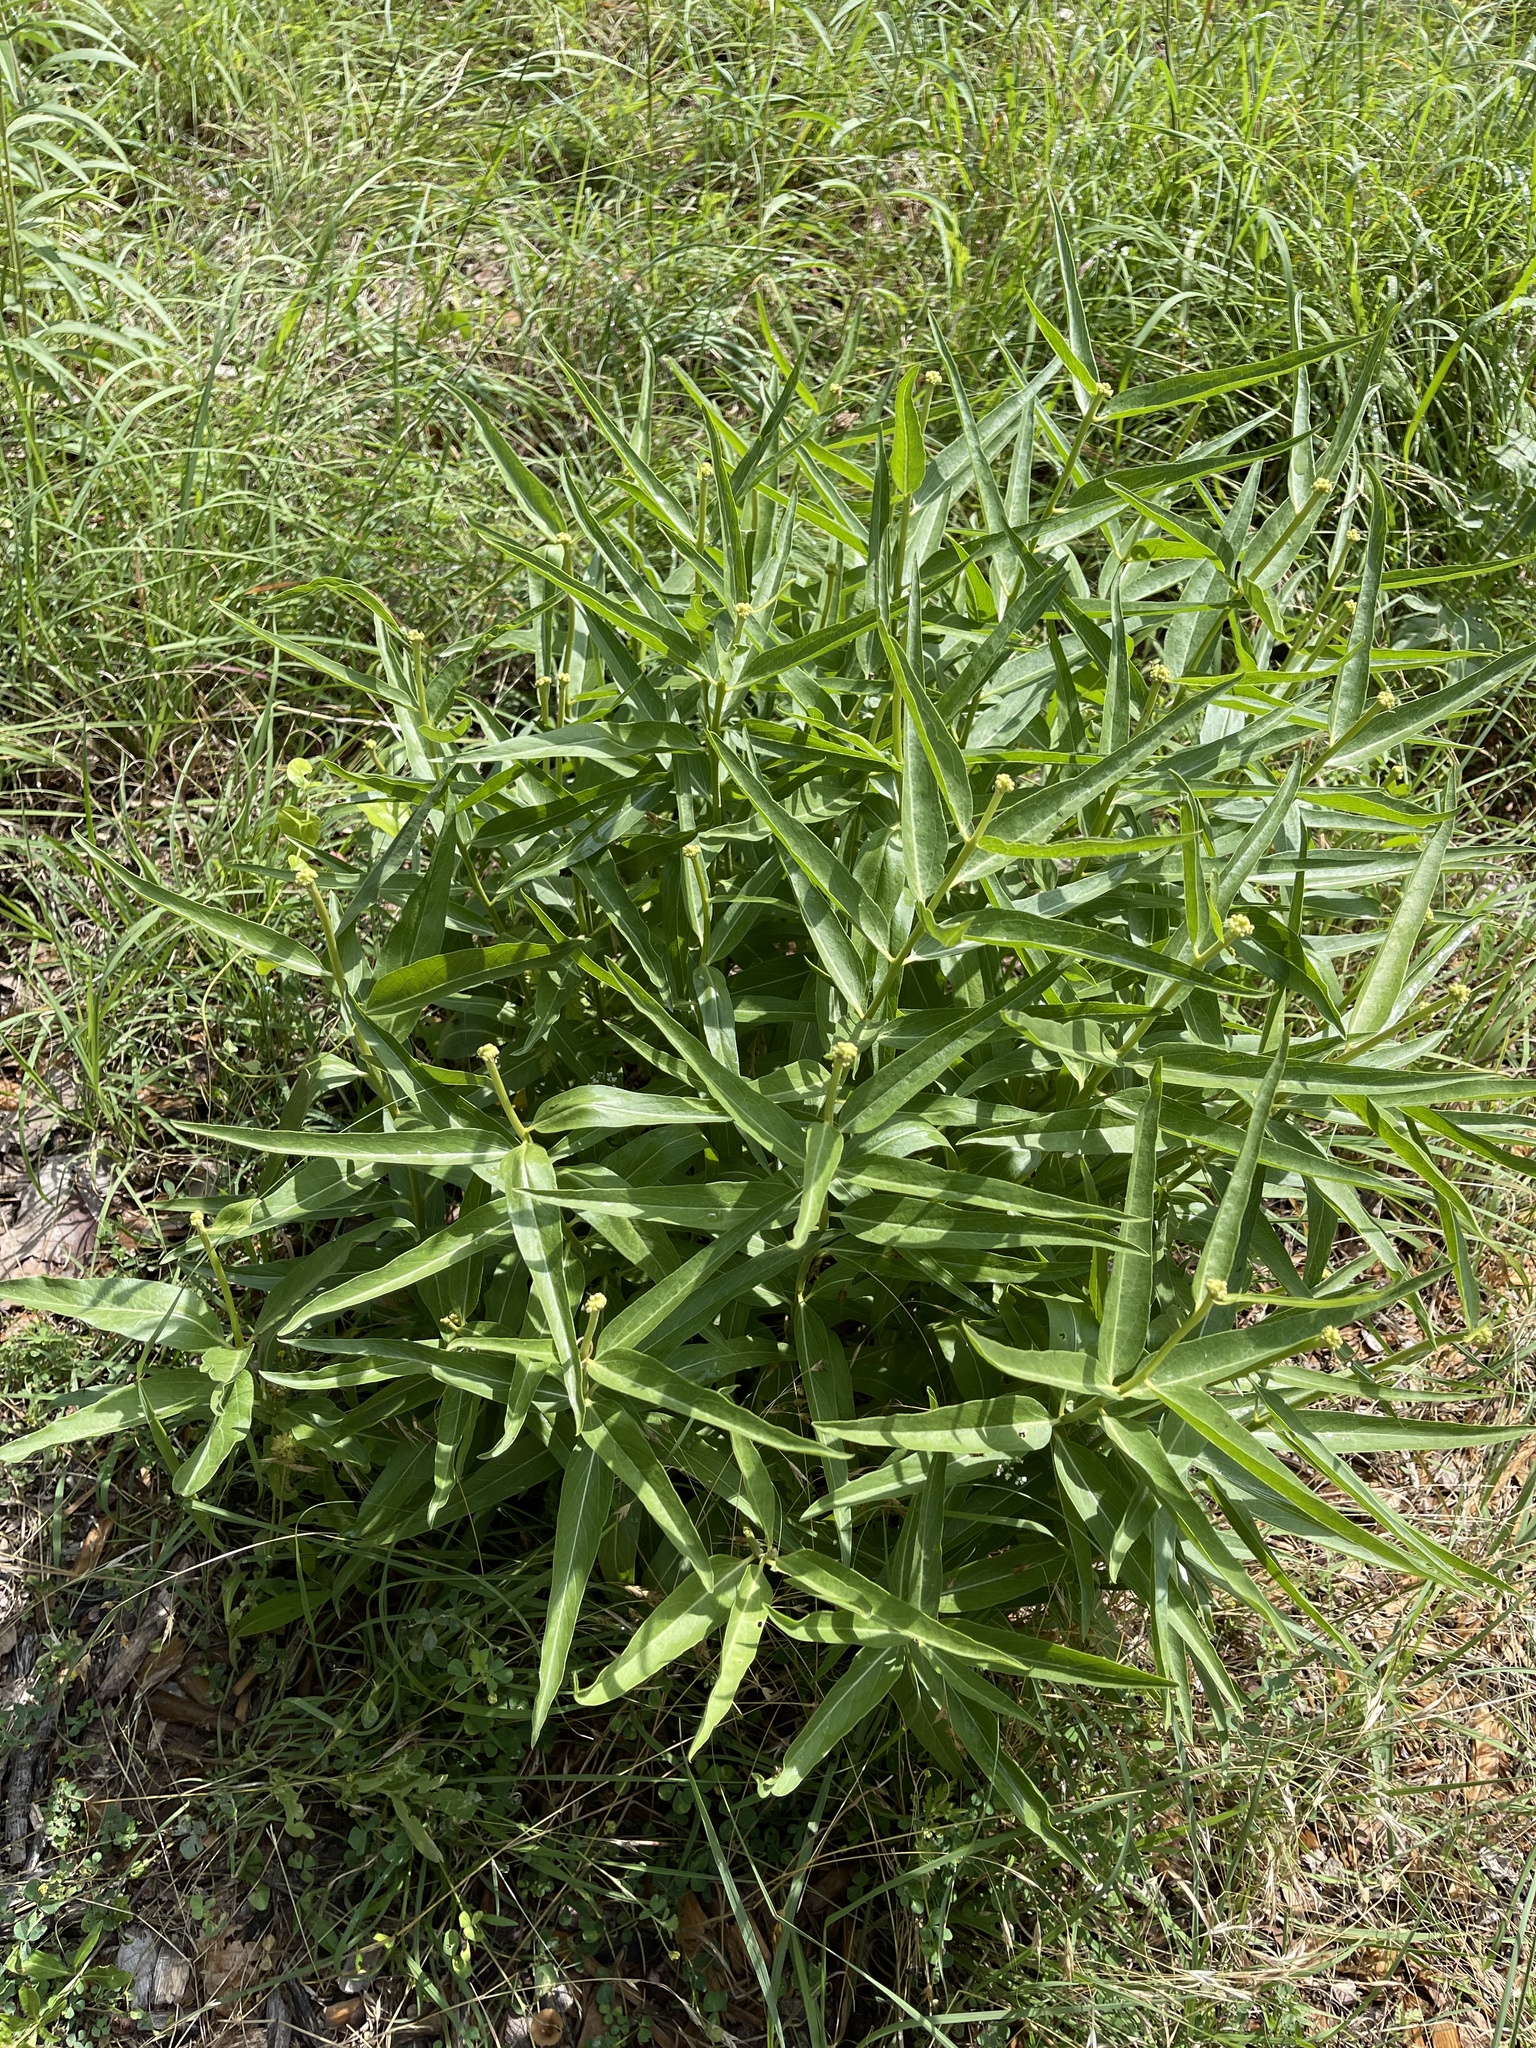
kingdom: Plantae
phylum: Tracheophyta
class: Magnoliopsida
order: Gentianales
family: Apocynaceae
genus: Asclepias
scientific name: Asclepias asperula
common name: Antelope horns
